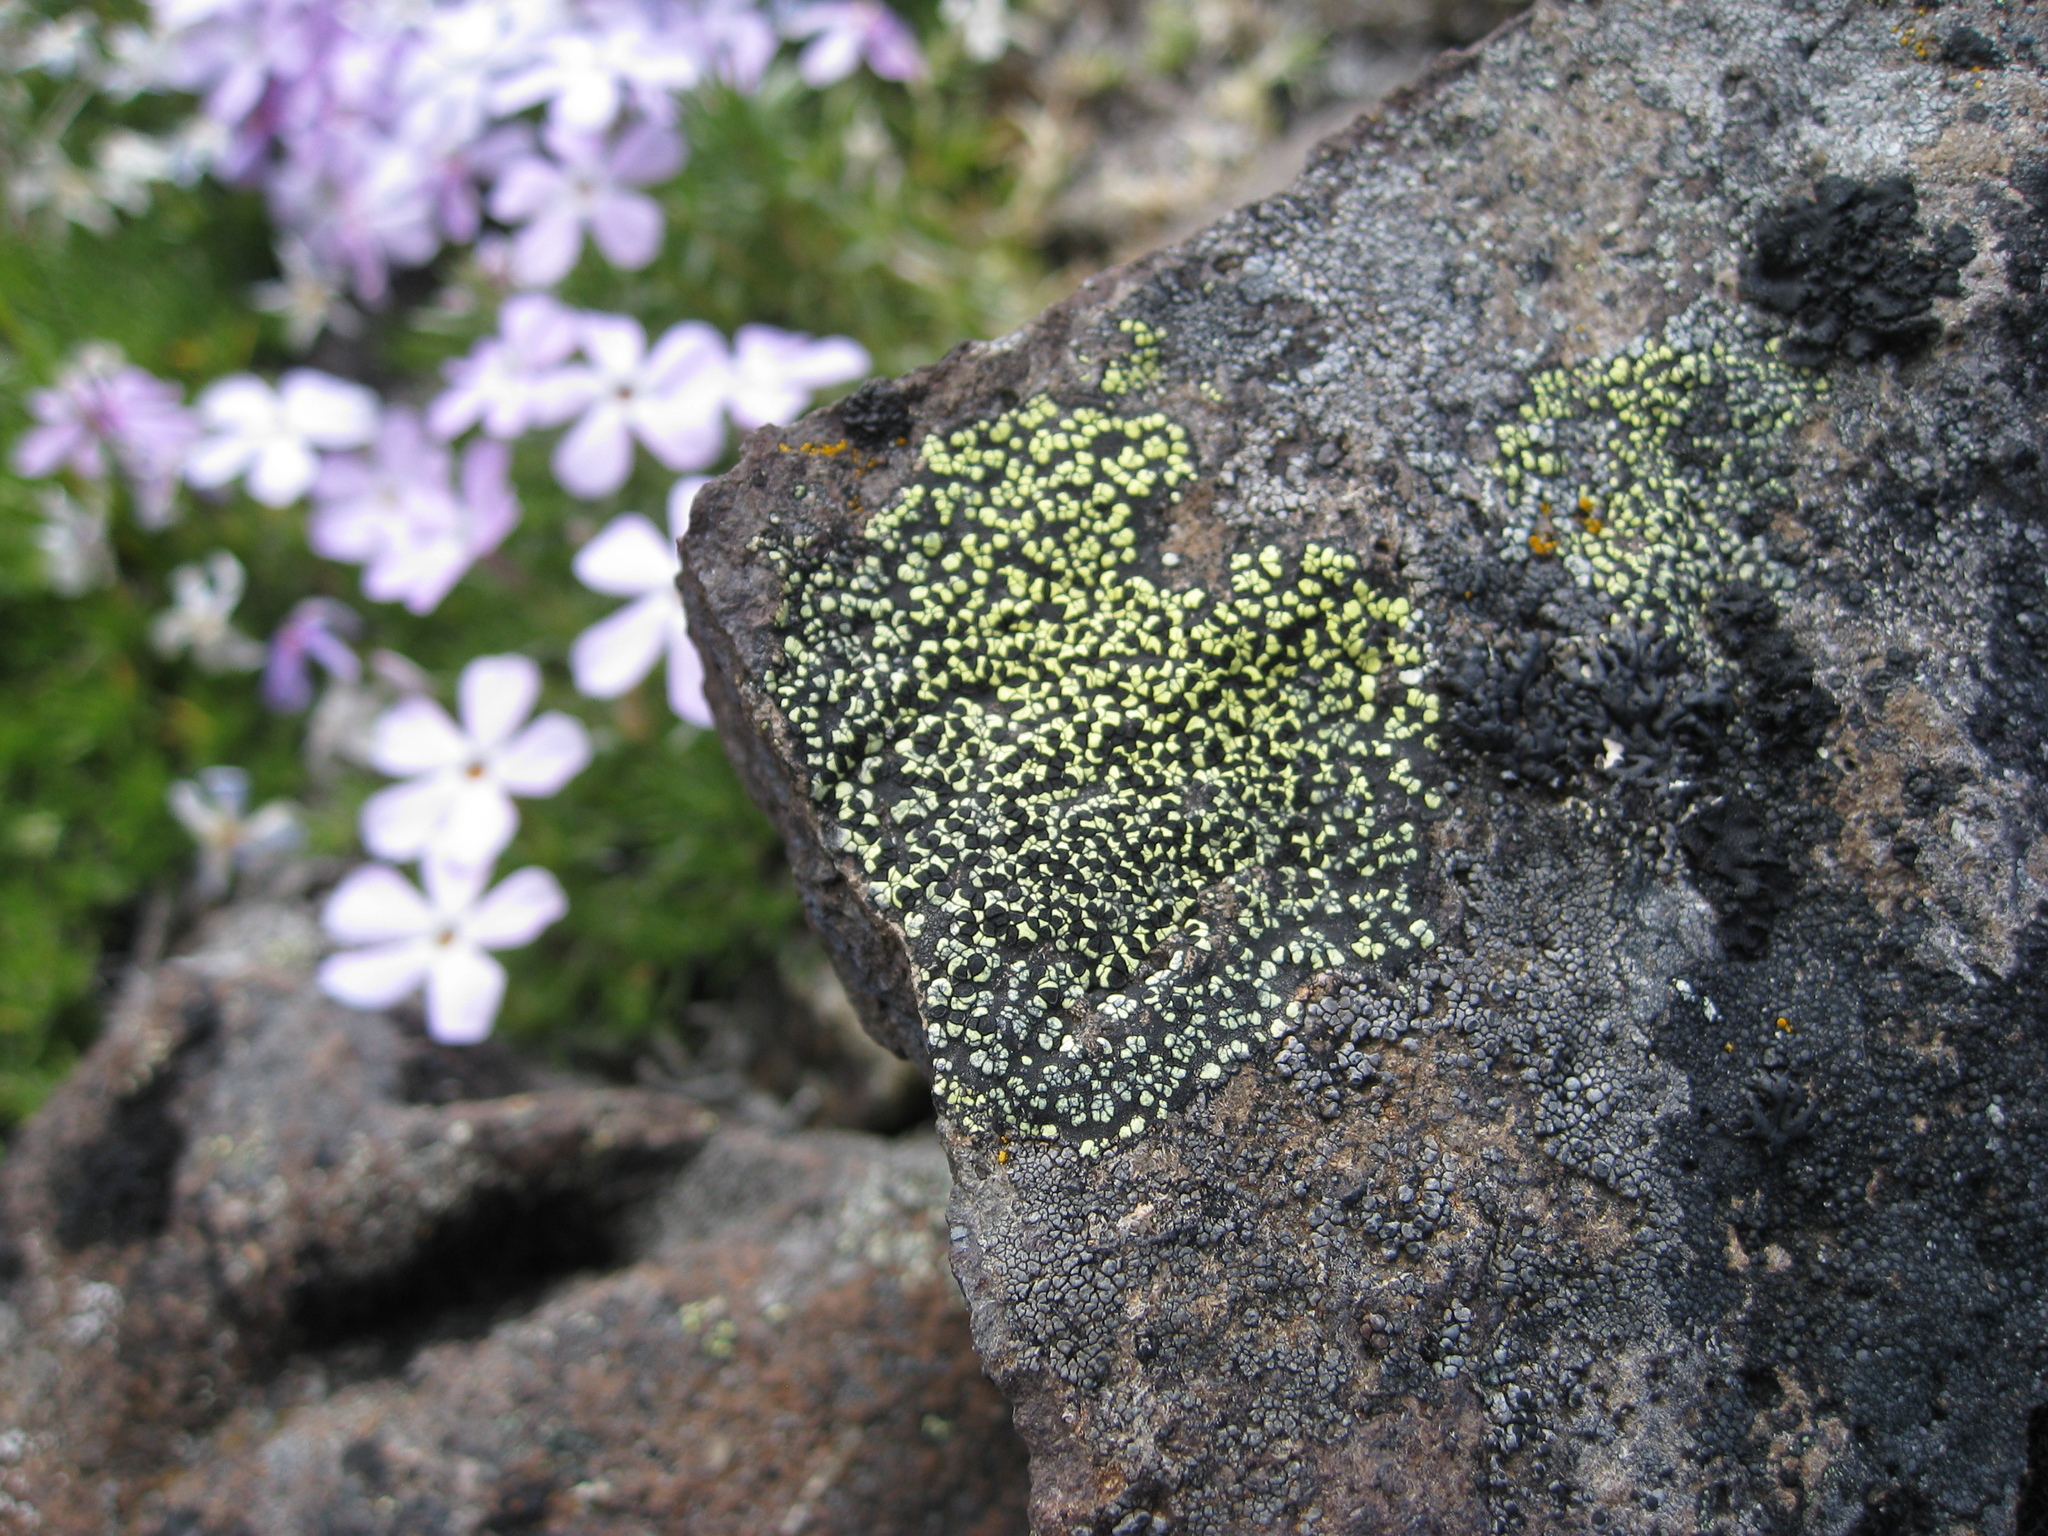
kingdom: Fungi
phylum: Ascomycota
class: Lecanoromycetes
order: Rhizocarpales
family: Rhizocarpaceae
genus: Rhizocarpon
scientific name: Rhizocarpon geographicum
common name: Yellow map lichen
